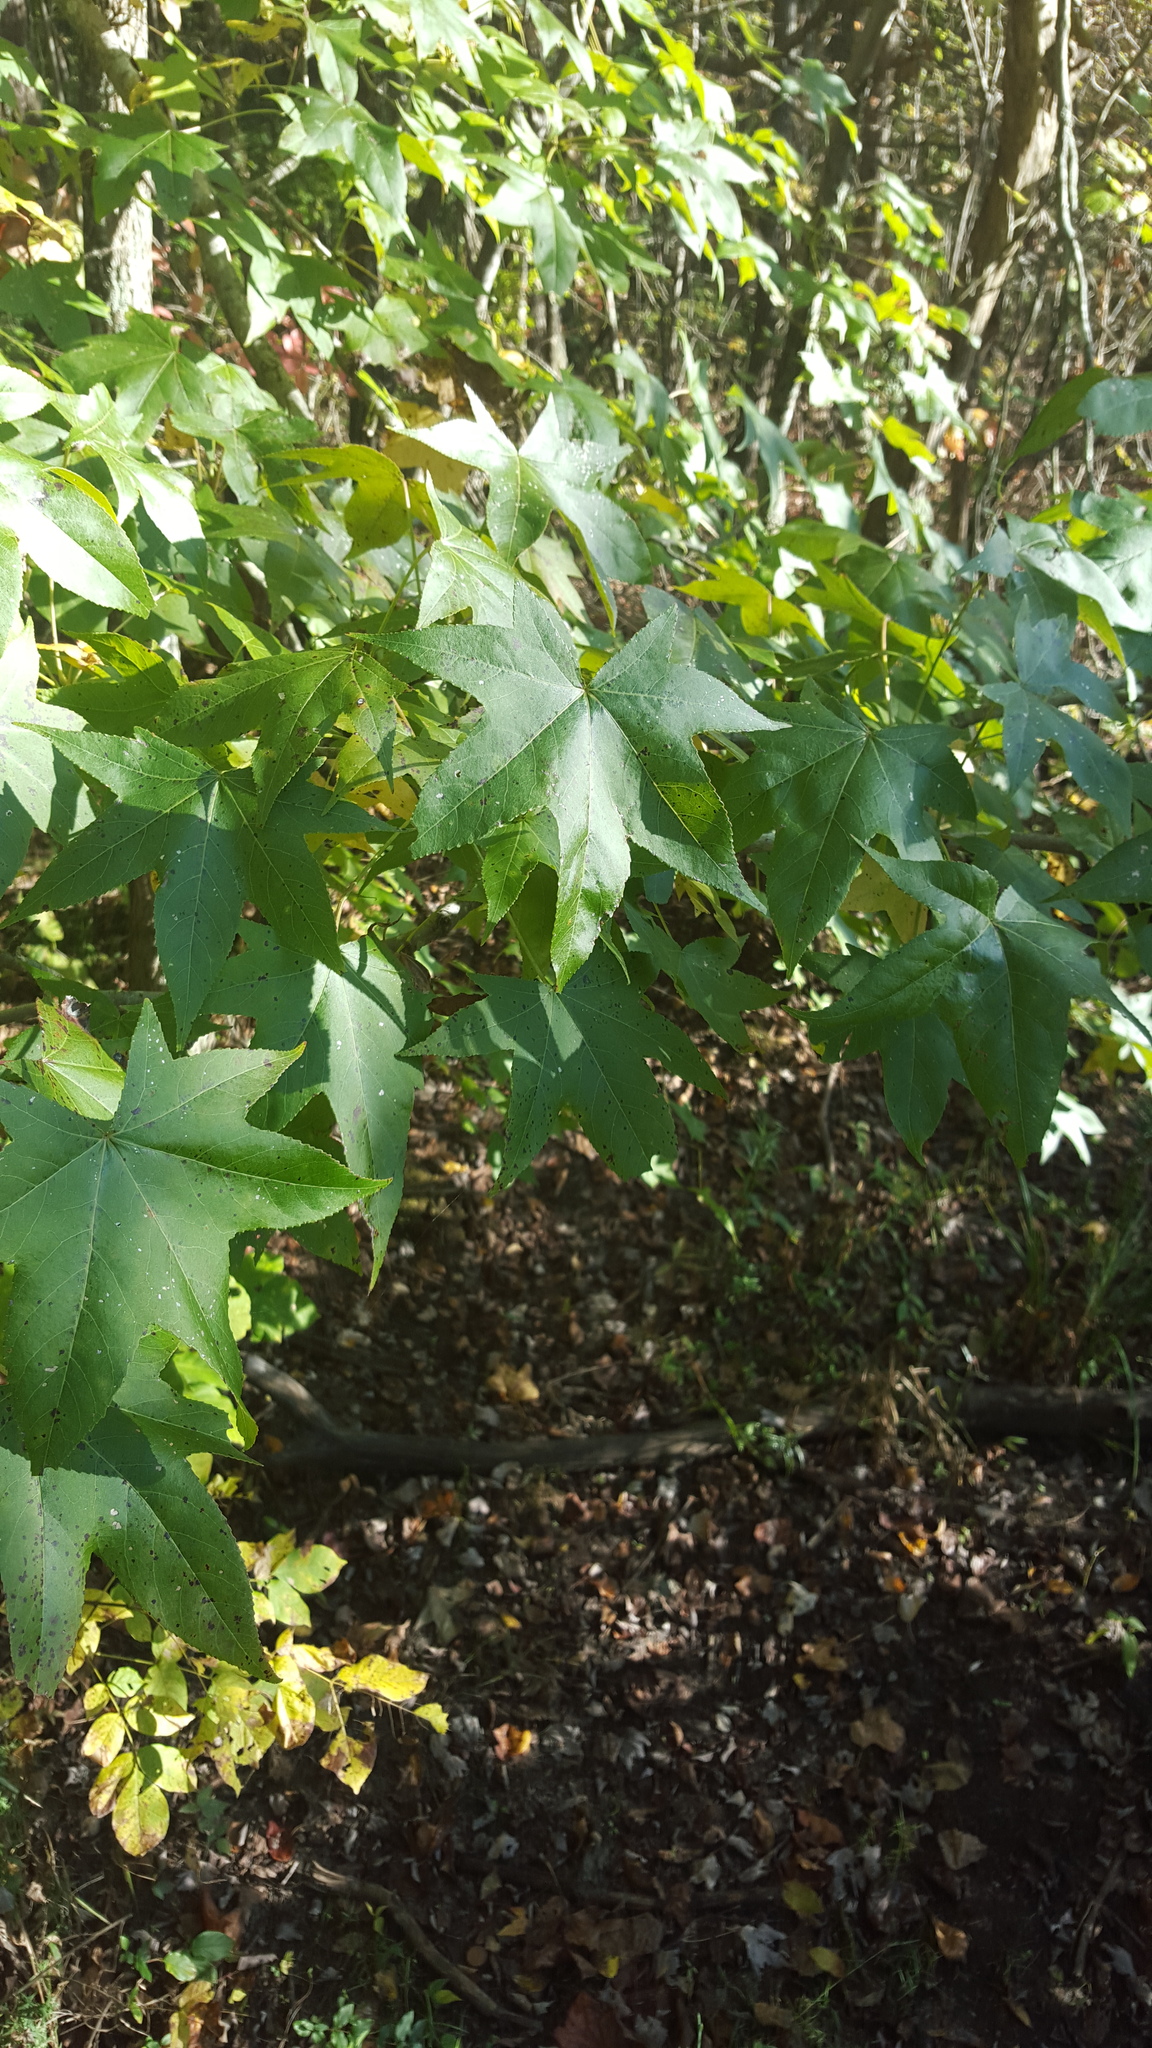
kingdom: Plantae
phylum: Tracheophyta
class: Magnoliopsida
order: Saxifragales
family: Altingiaceae
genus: Liquidambar
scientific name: Liquidambar styraciflua
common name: Sweet gum
